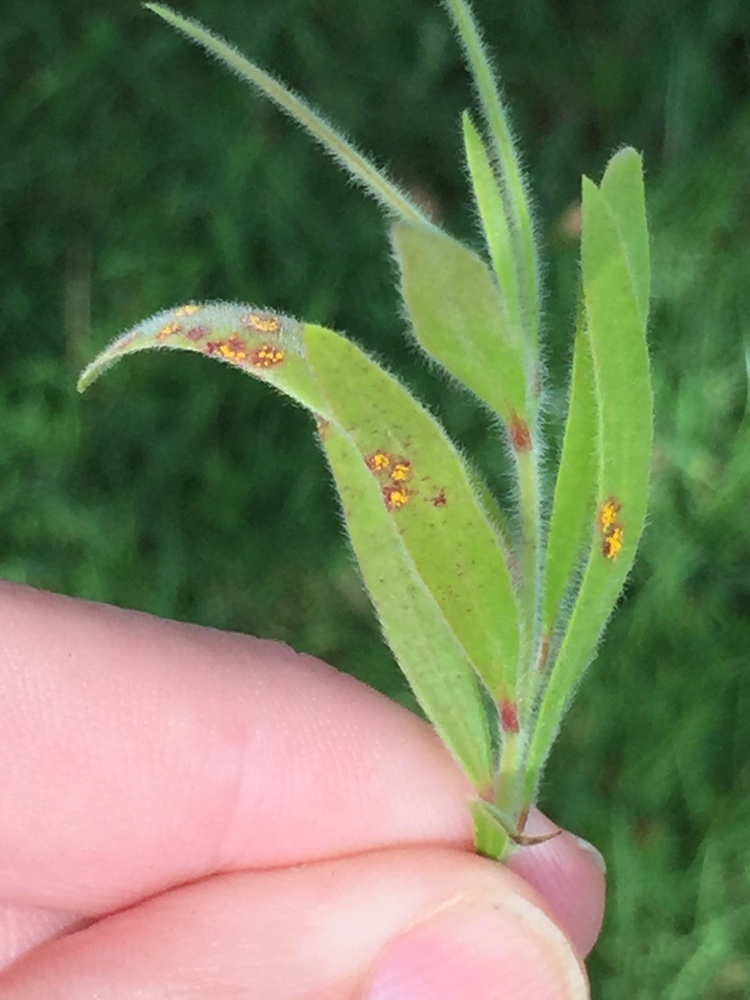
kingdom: Fungi
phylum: Basidiomycota
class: Pucciniomycetes
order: Pucciniales
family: Sphaerophragmiaceae
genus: Austropuccinia
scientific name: Austropuccinia psidii
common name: Myrtle rust
